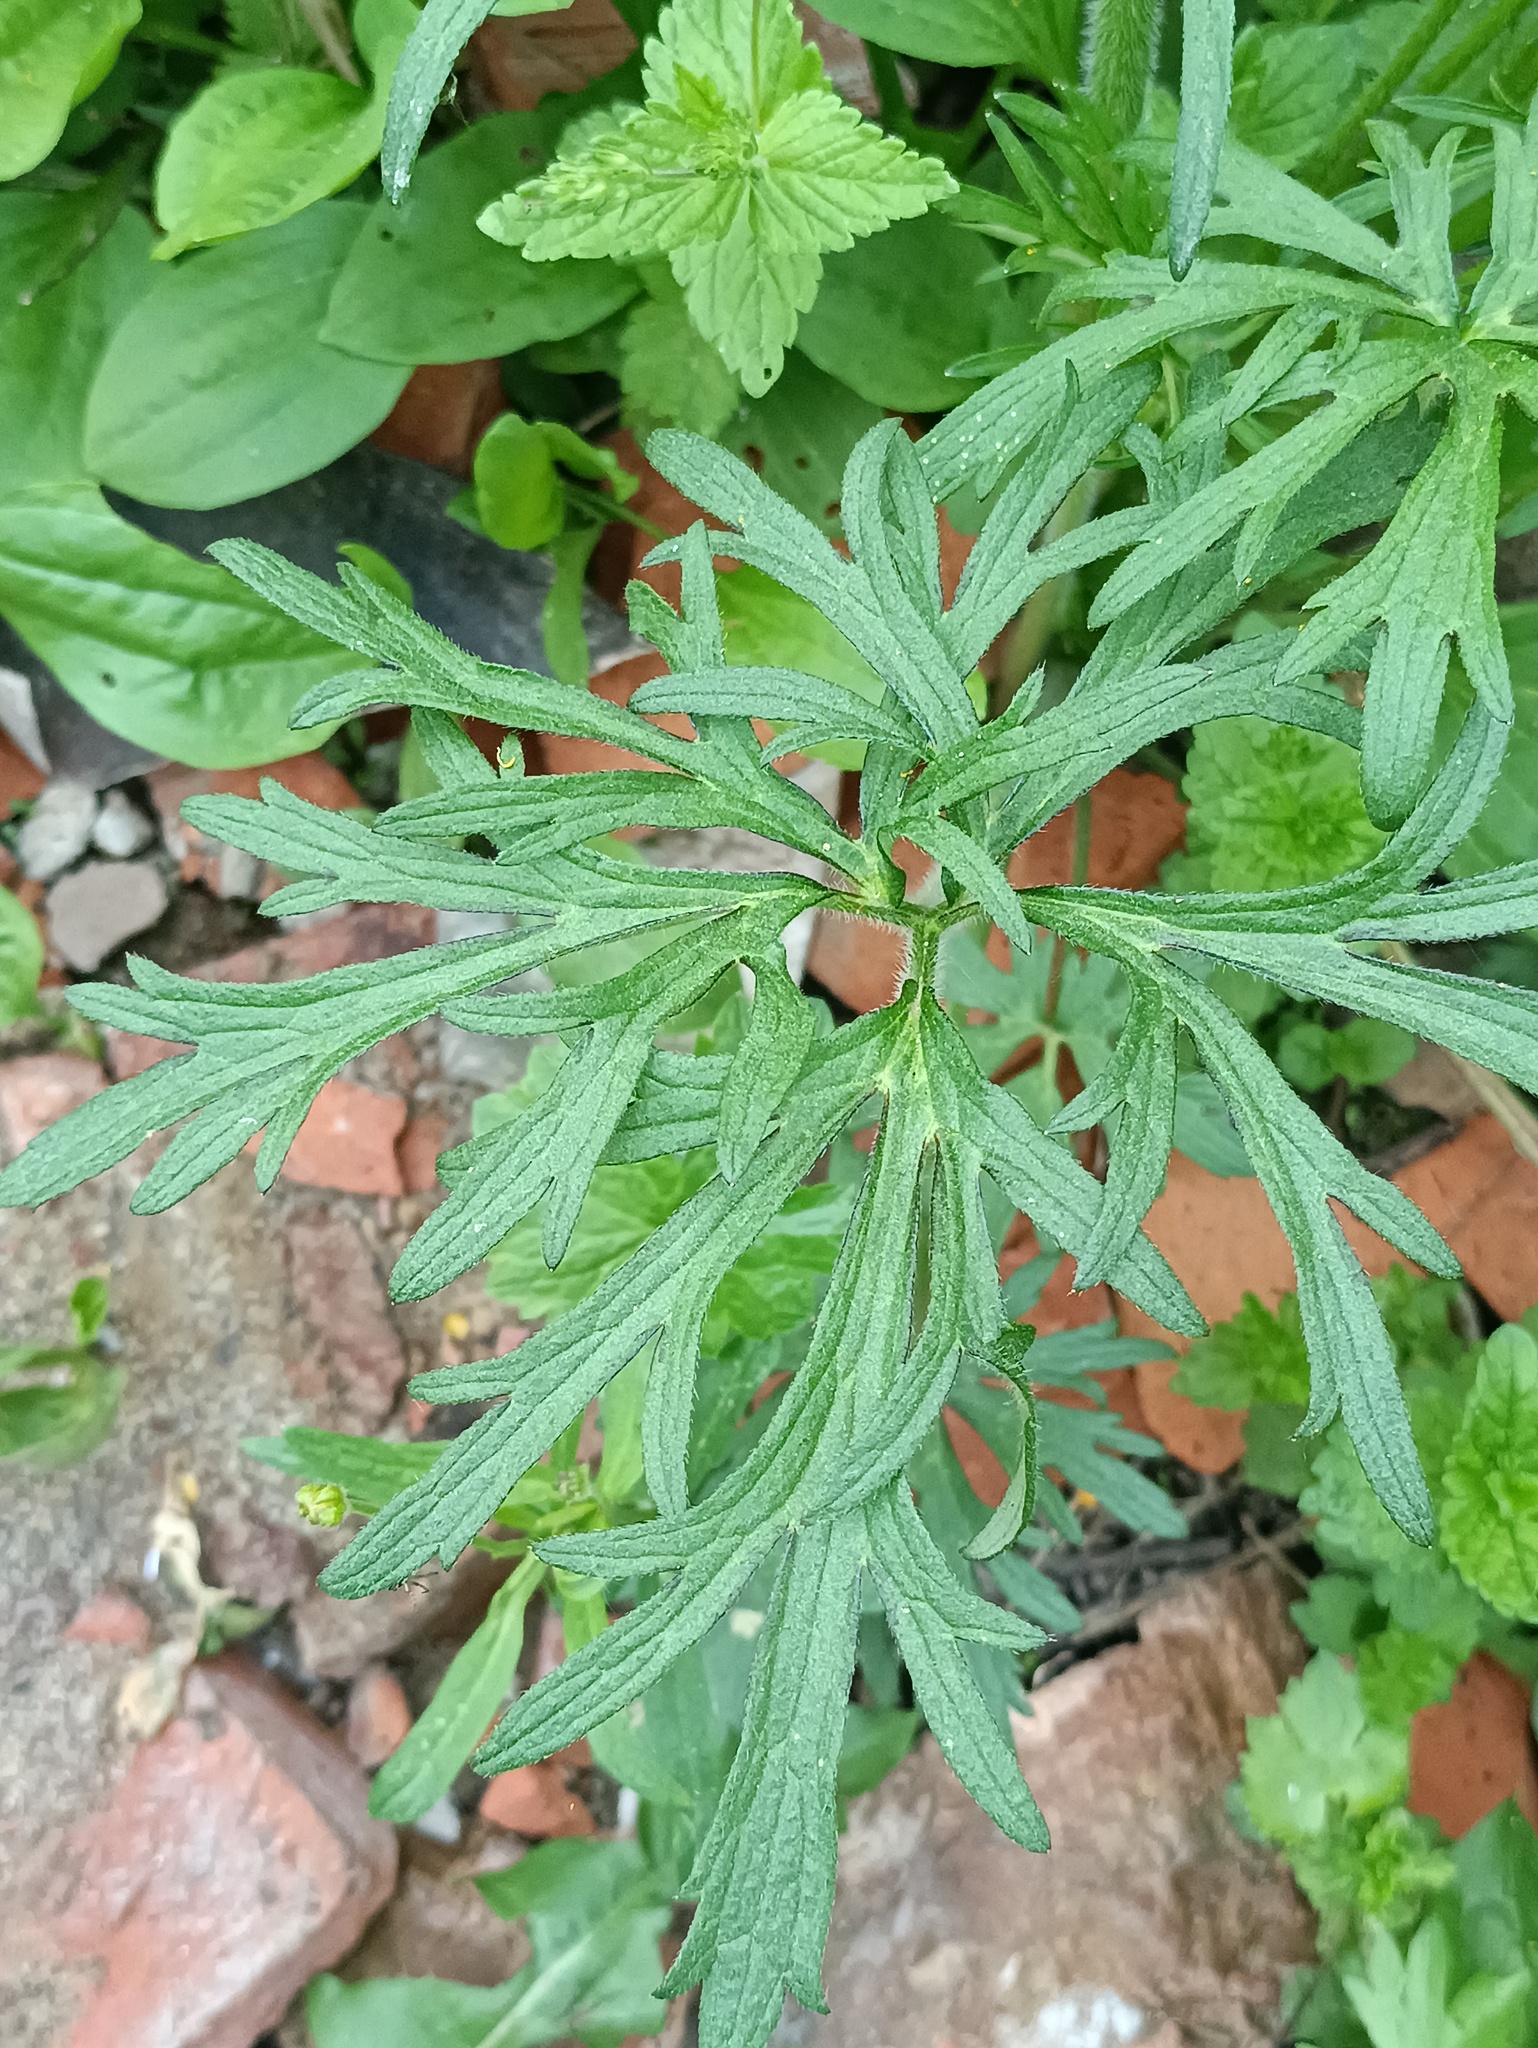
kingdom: Plantae
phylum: Tracheophyta
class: Magnoliopsida
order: Ranunculales
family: Ranunculaceae
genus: Ranunculus
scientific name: Ranunculus polyanthemos
